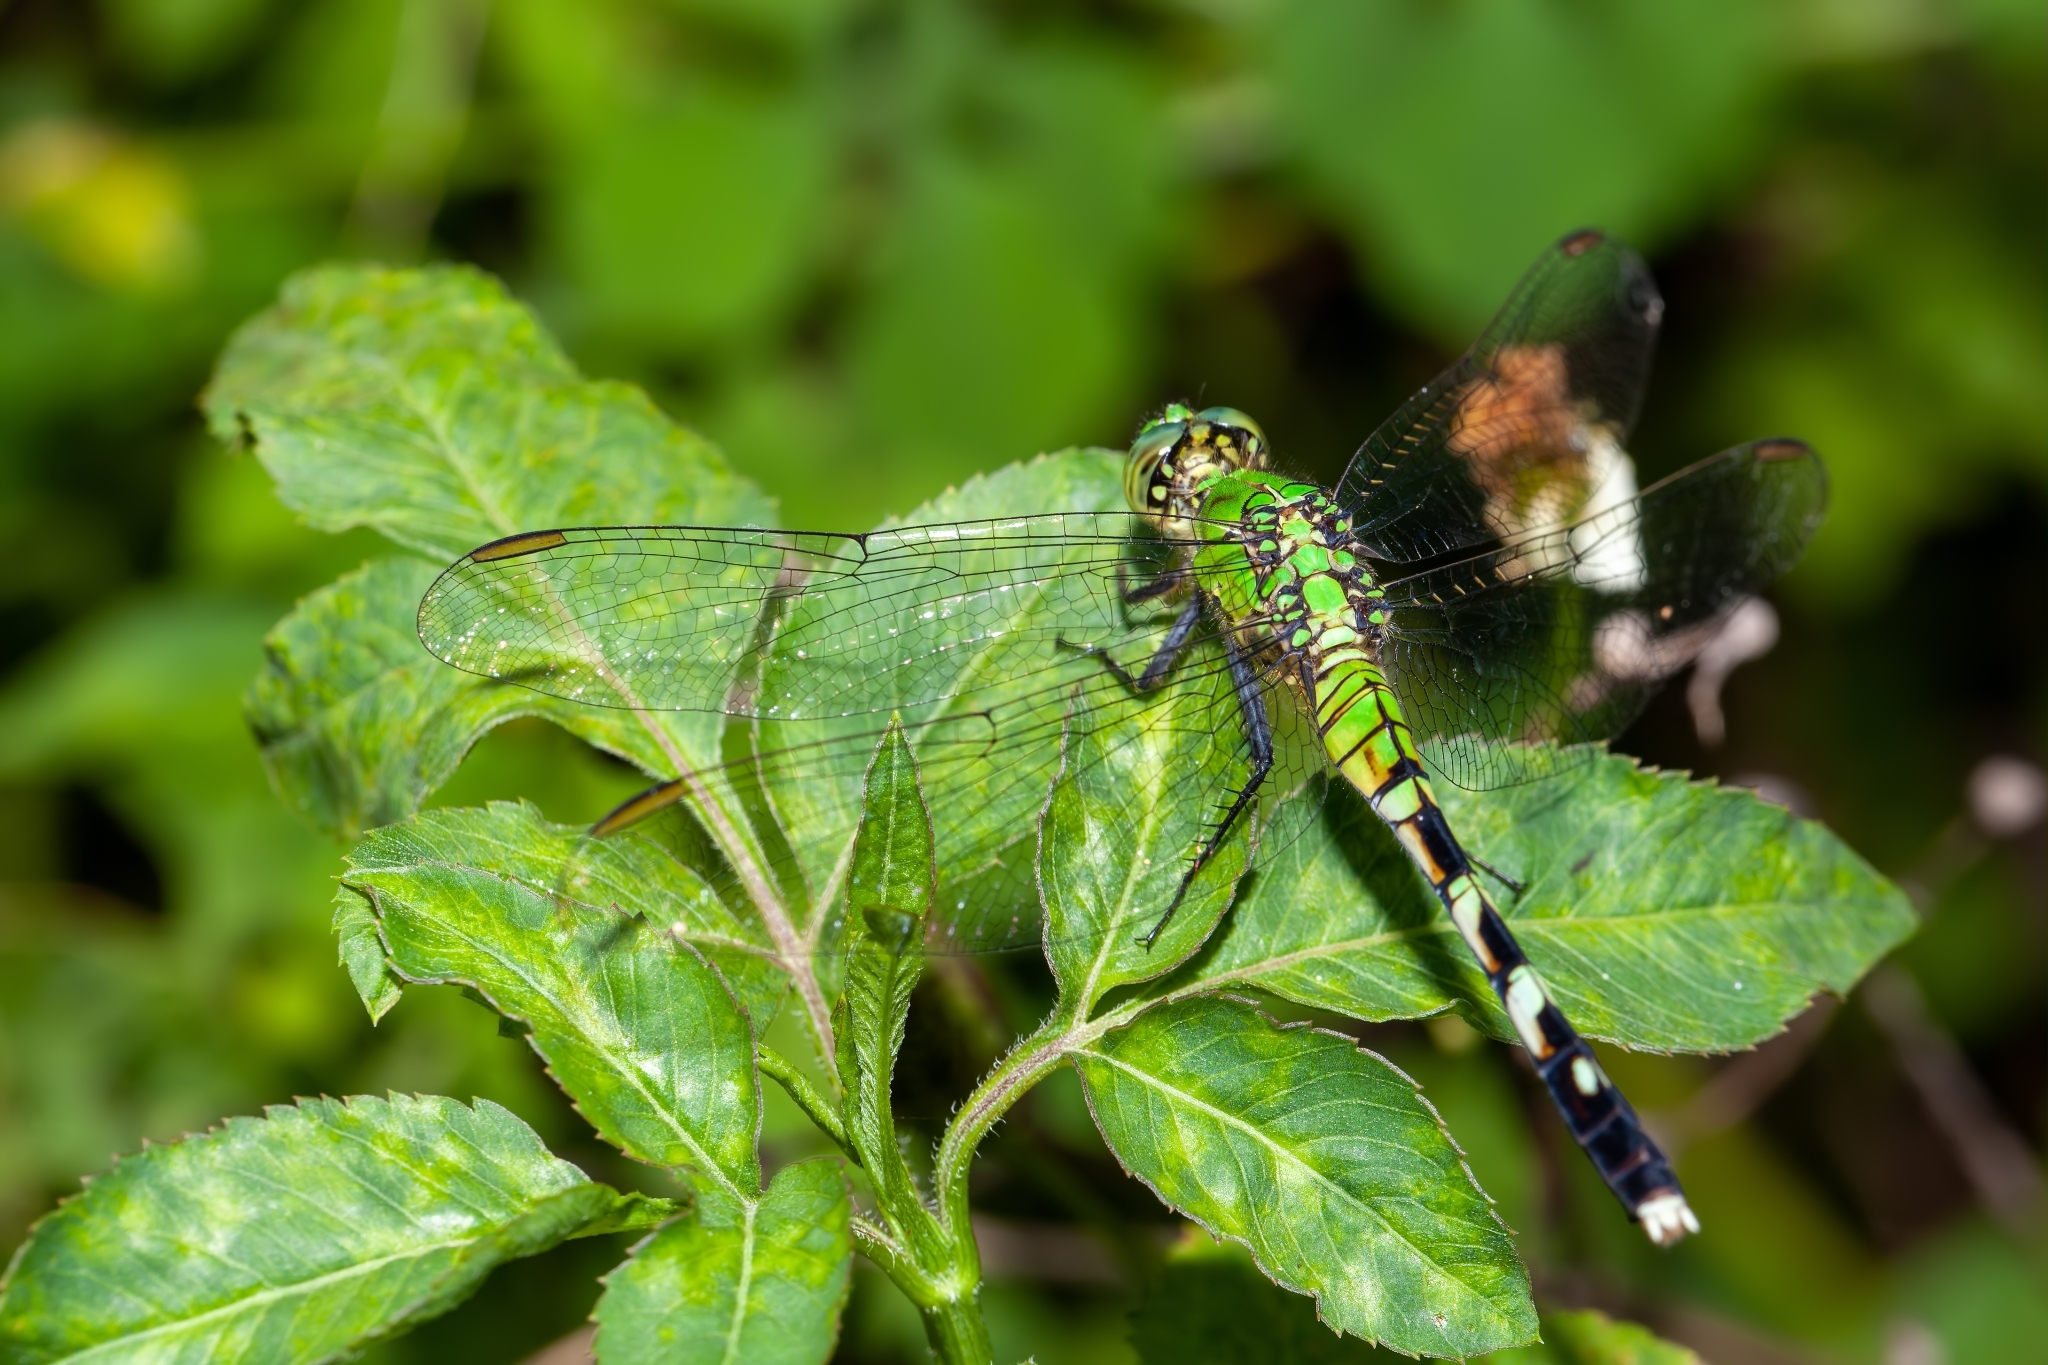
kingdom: Animalia
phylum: Arthropoda
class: Insecta
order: Odonata
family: Libellulidae
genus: Erythemis
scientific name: Erythemis simplicicollis
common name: Eastern pondhawk
